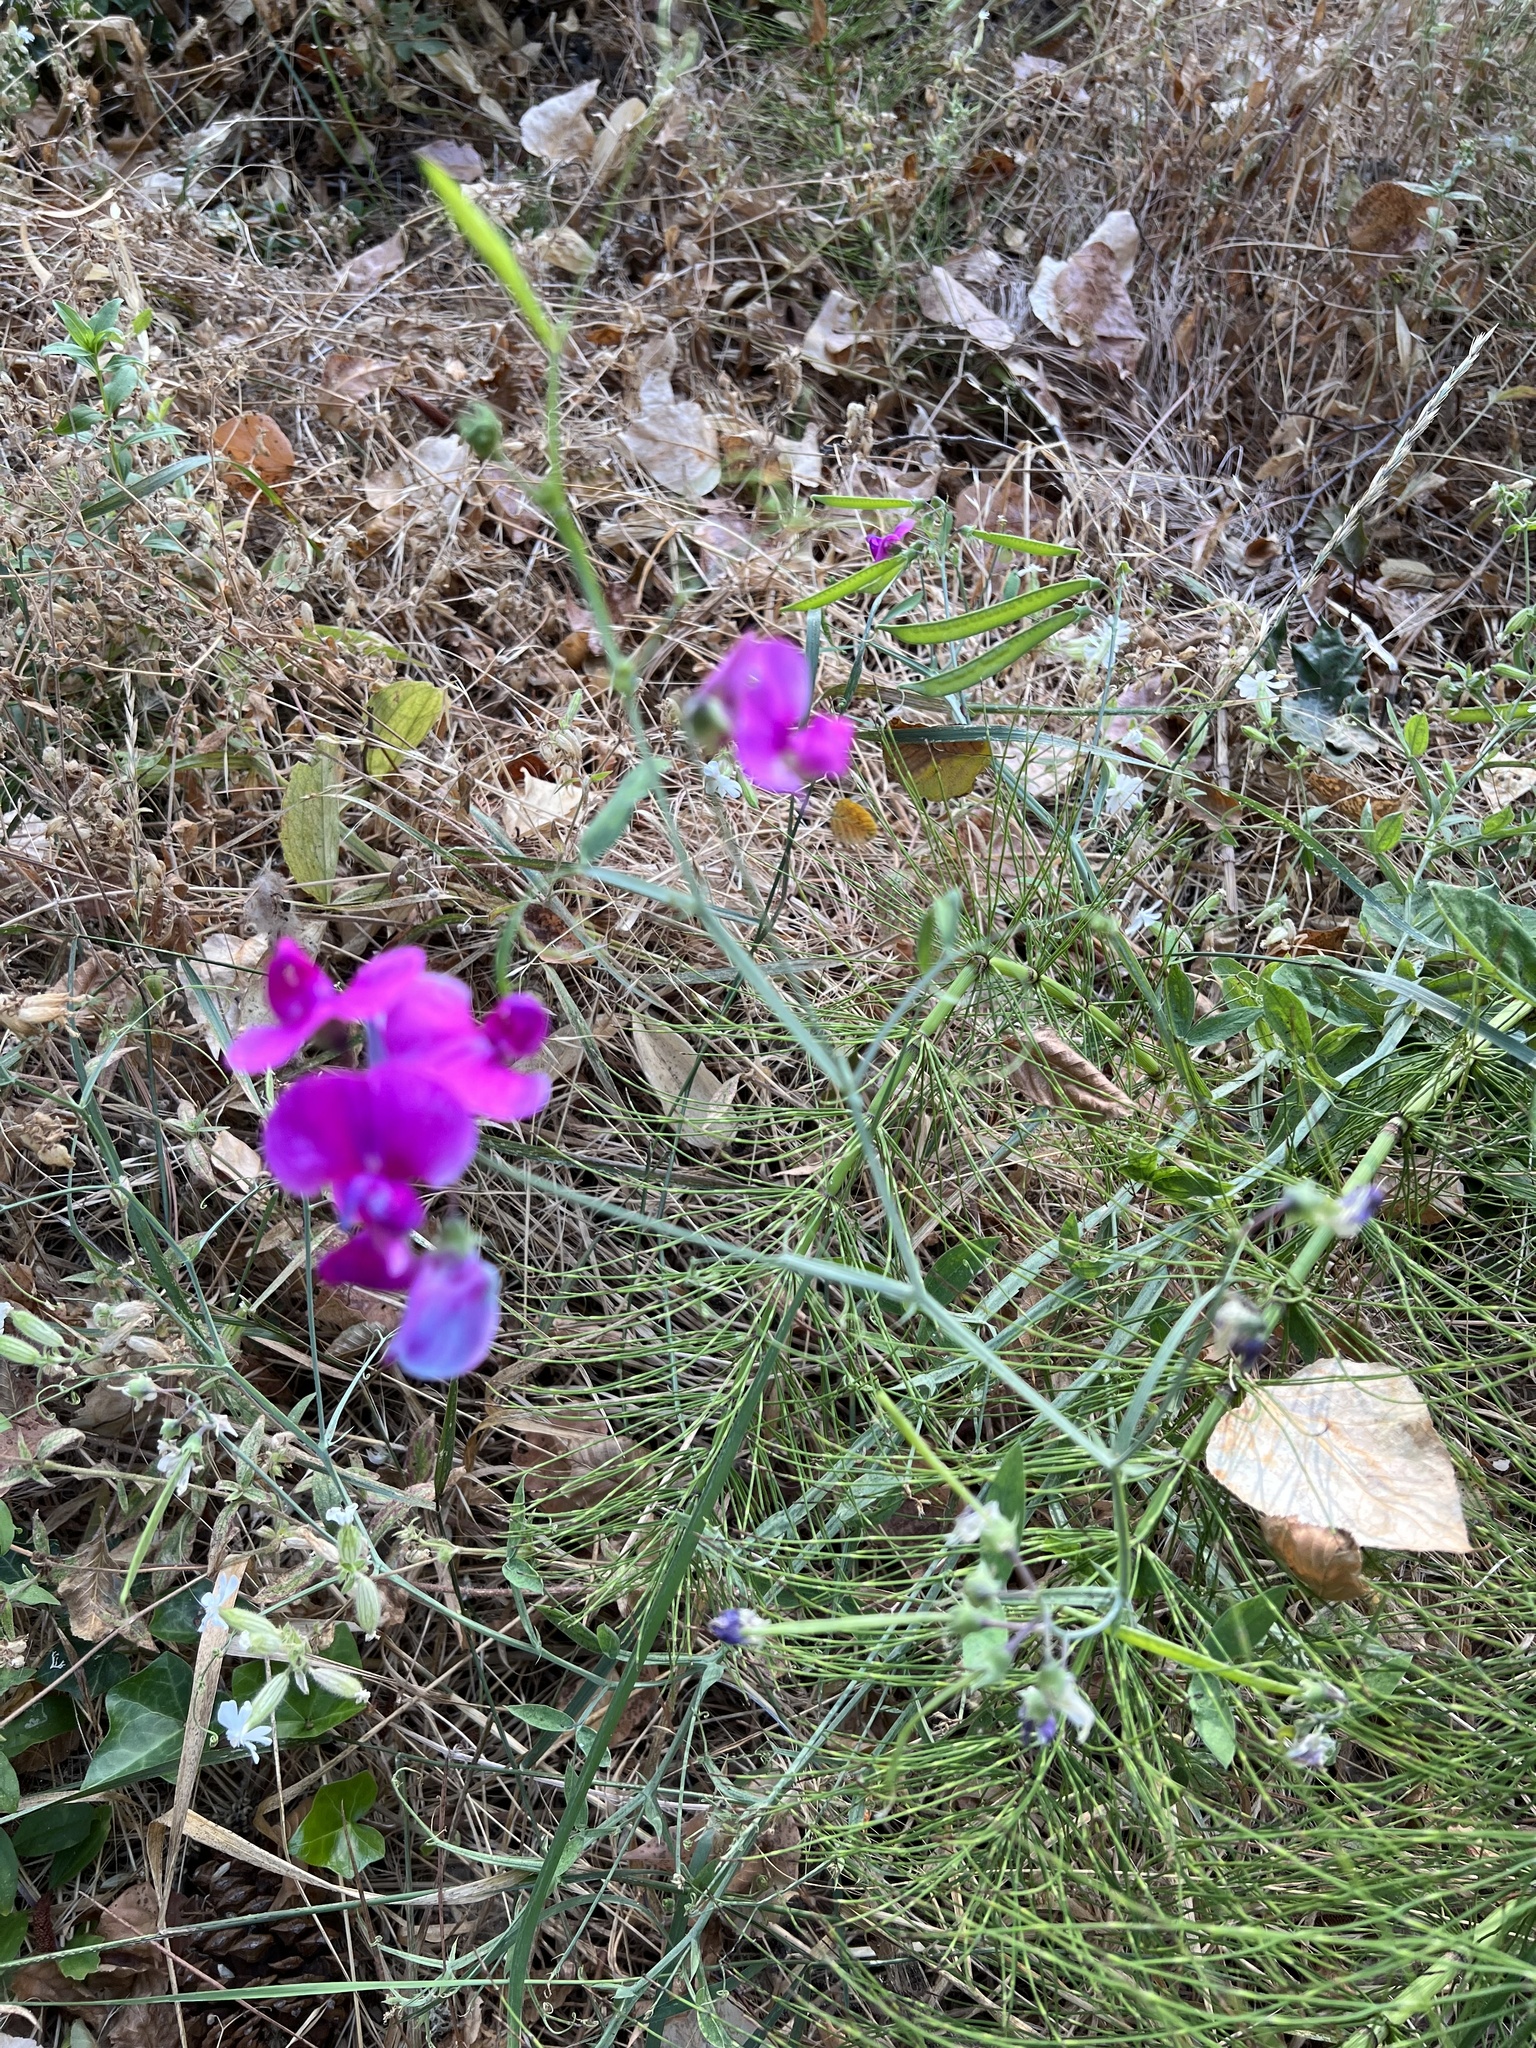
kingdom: Plantae
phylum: Tracheophyta
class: Magnoliopsida
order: Fabales
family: Fabaceae
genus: Lathyrus
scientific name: Lathyrus latifolius
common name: Perennial pea
